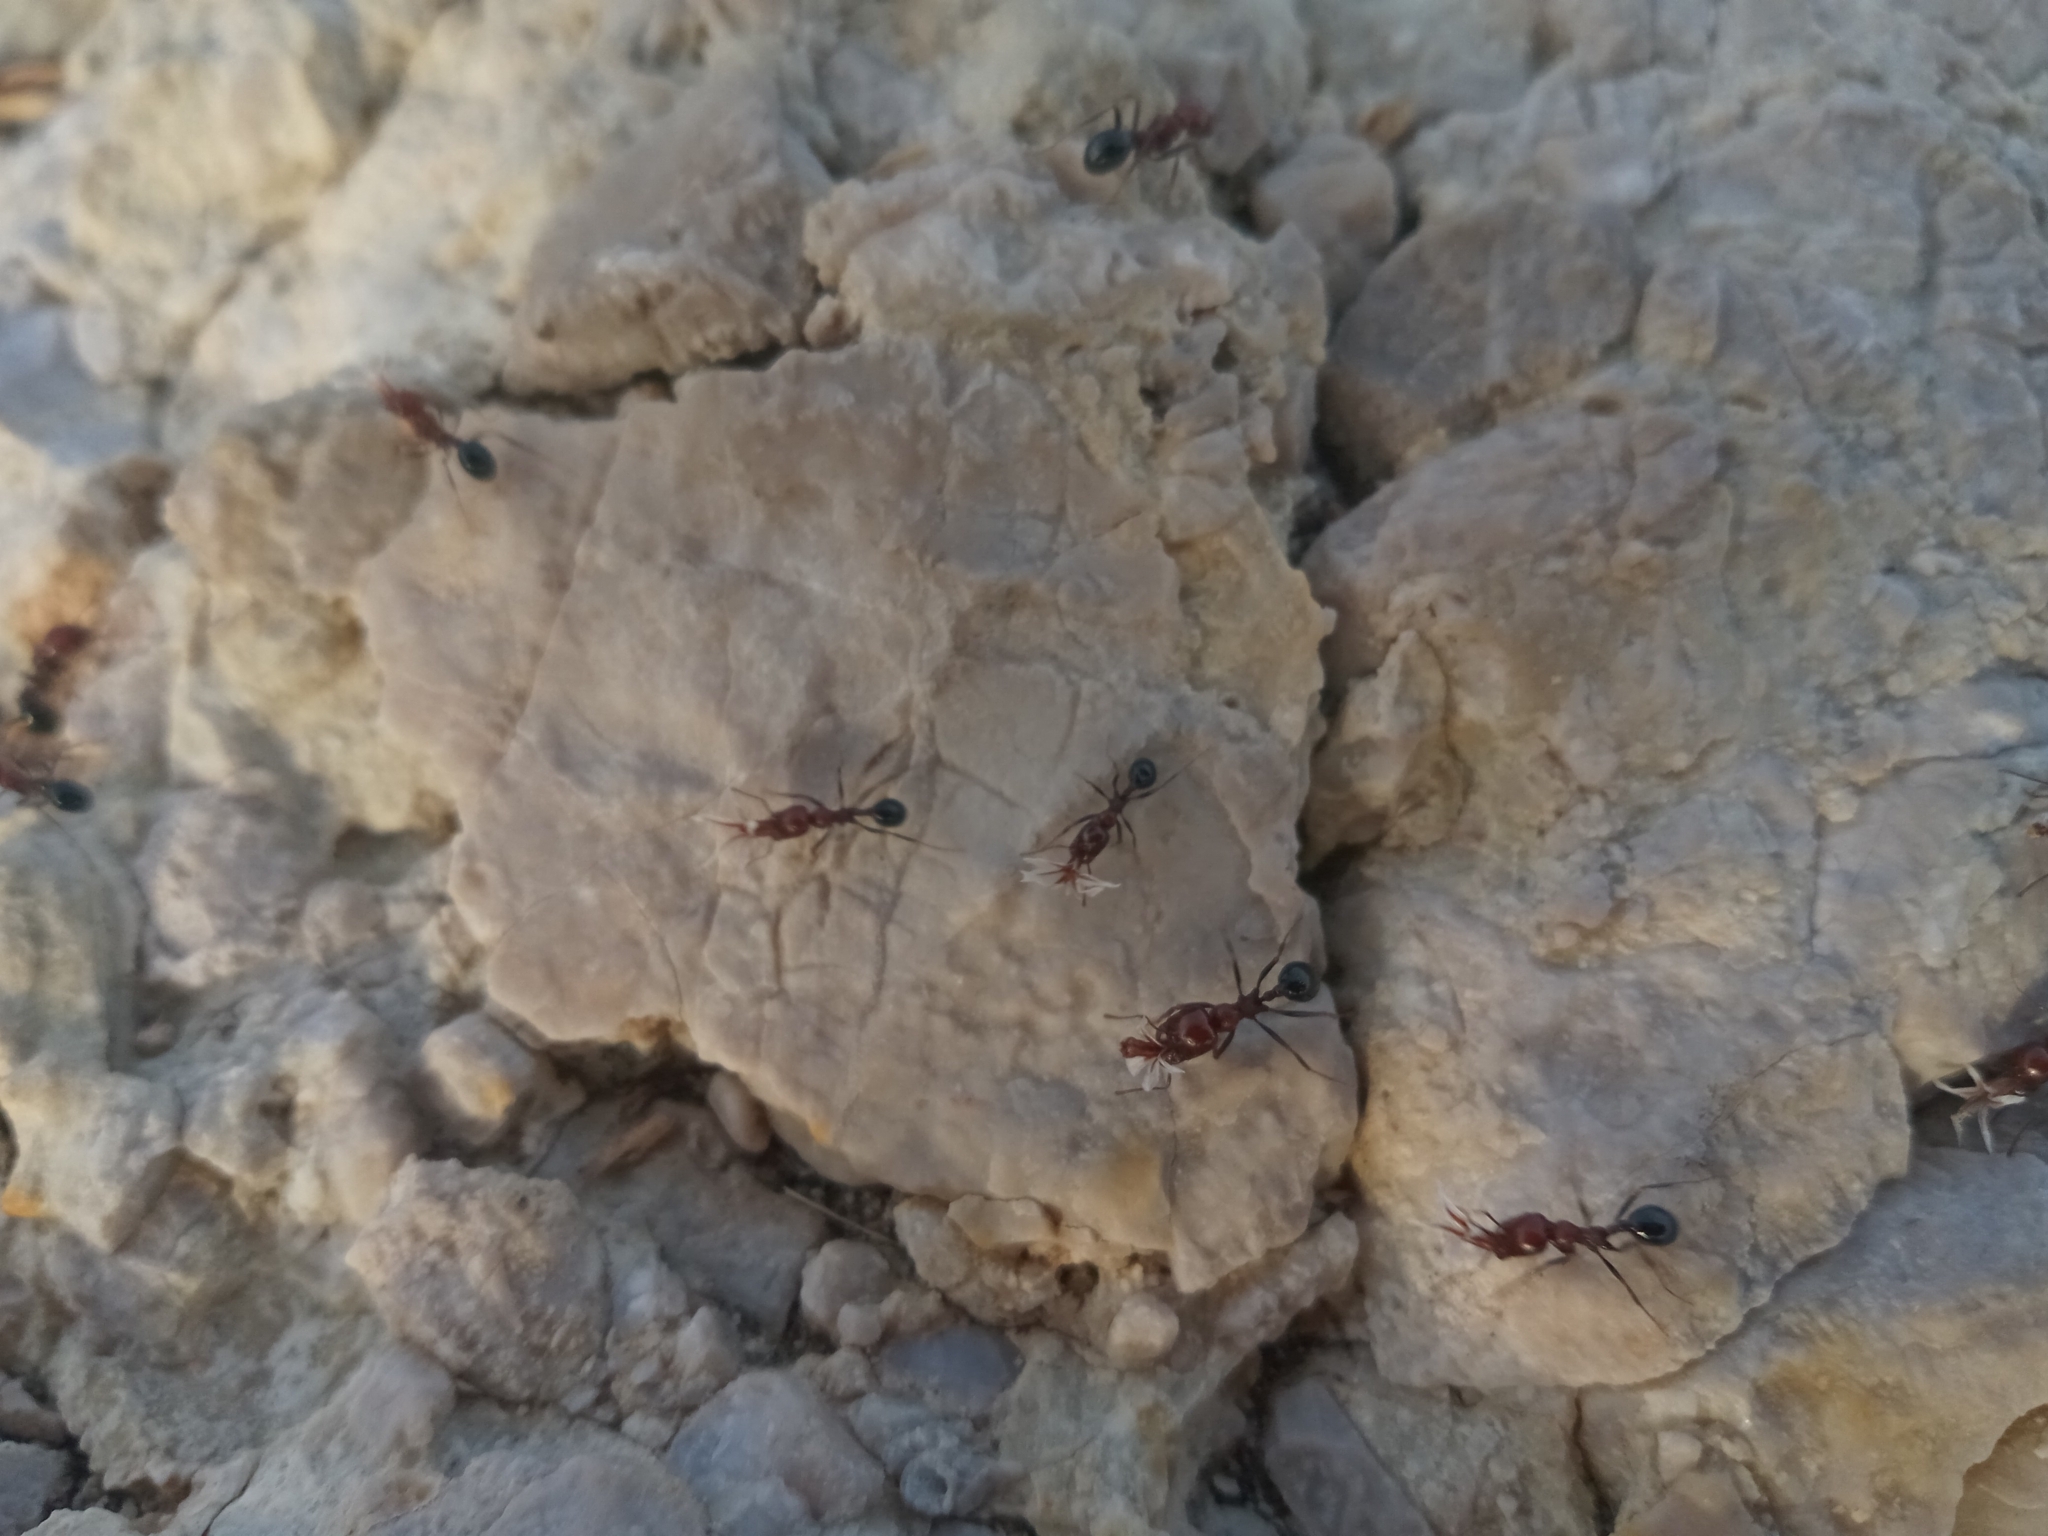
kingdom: Animalia
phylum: Arthropoda
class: Insecta
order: Hymenoptera
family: Formicidae
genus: Messor
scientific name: Messor minor
